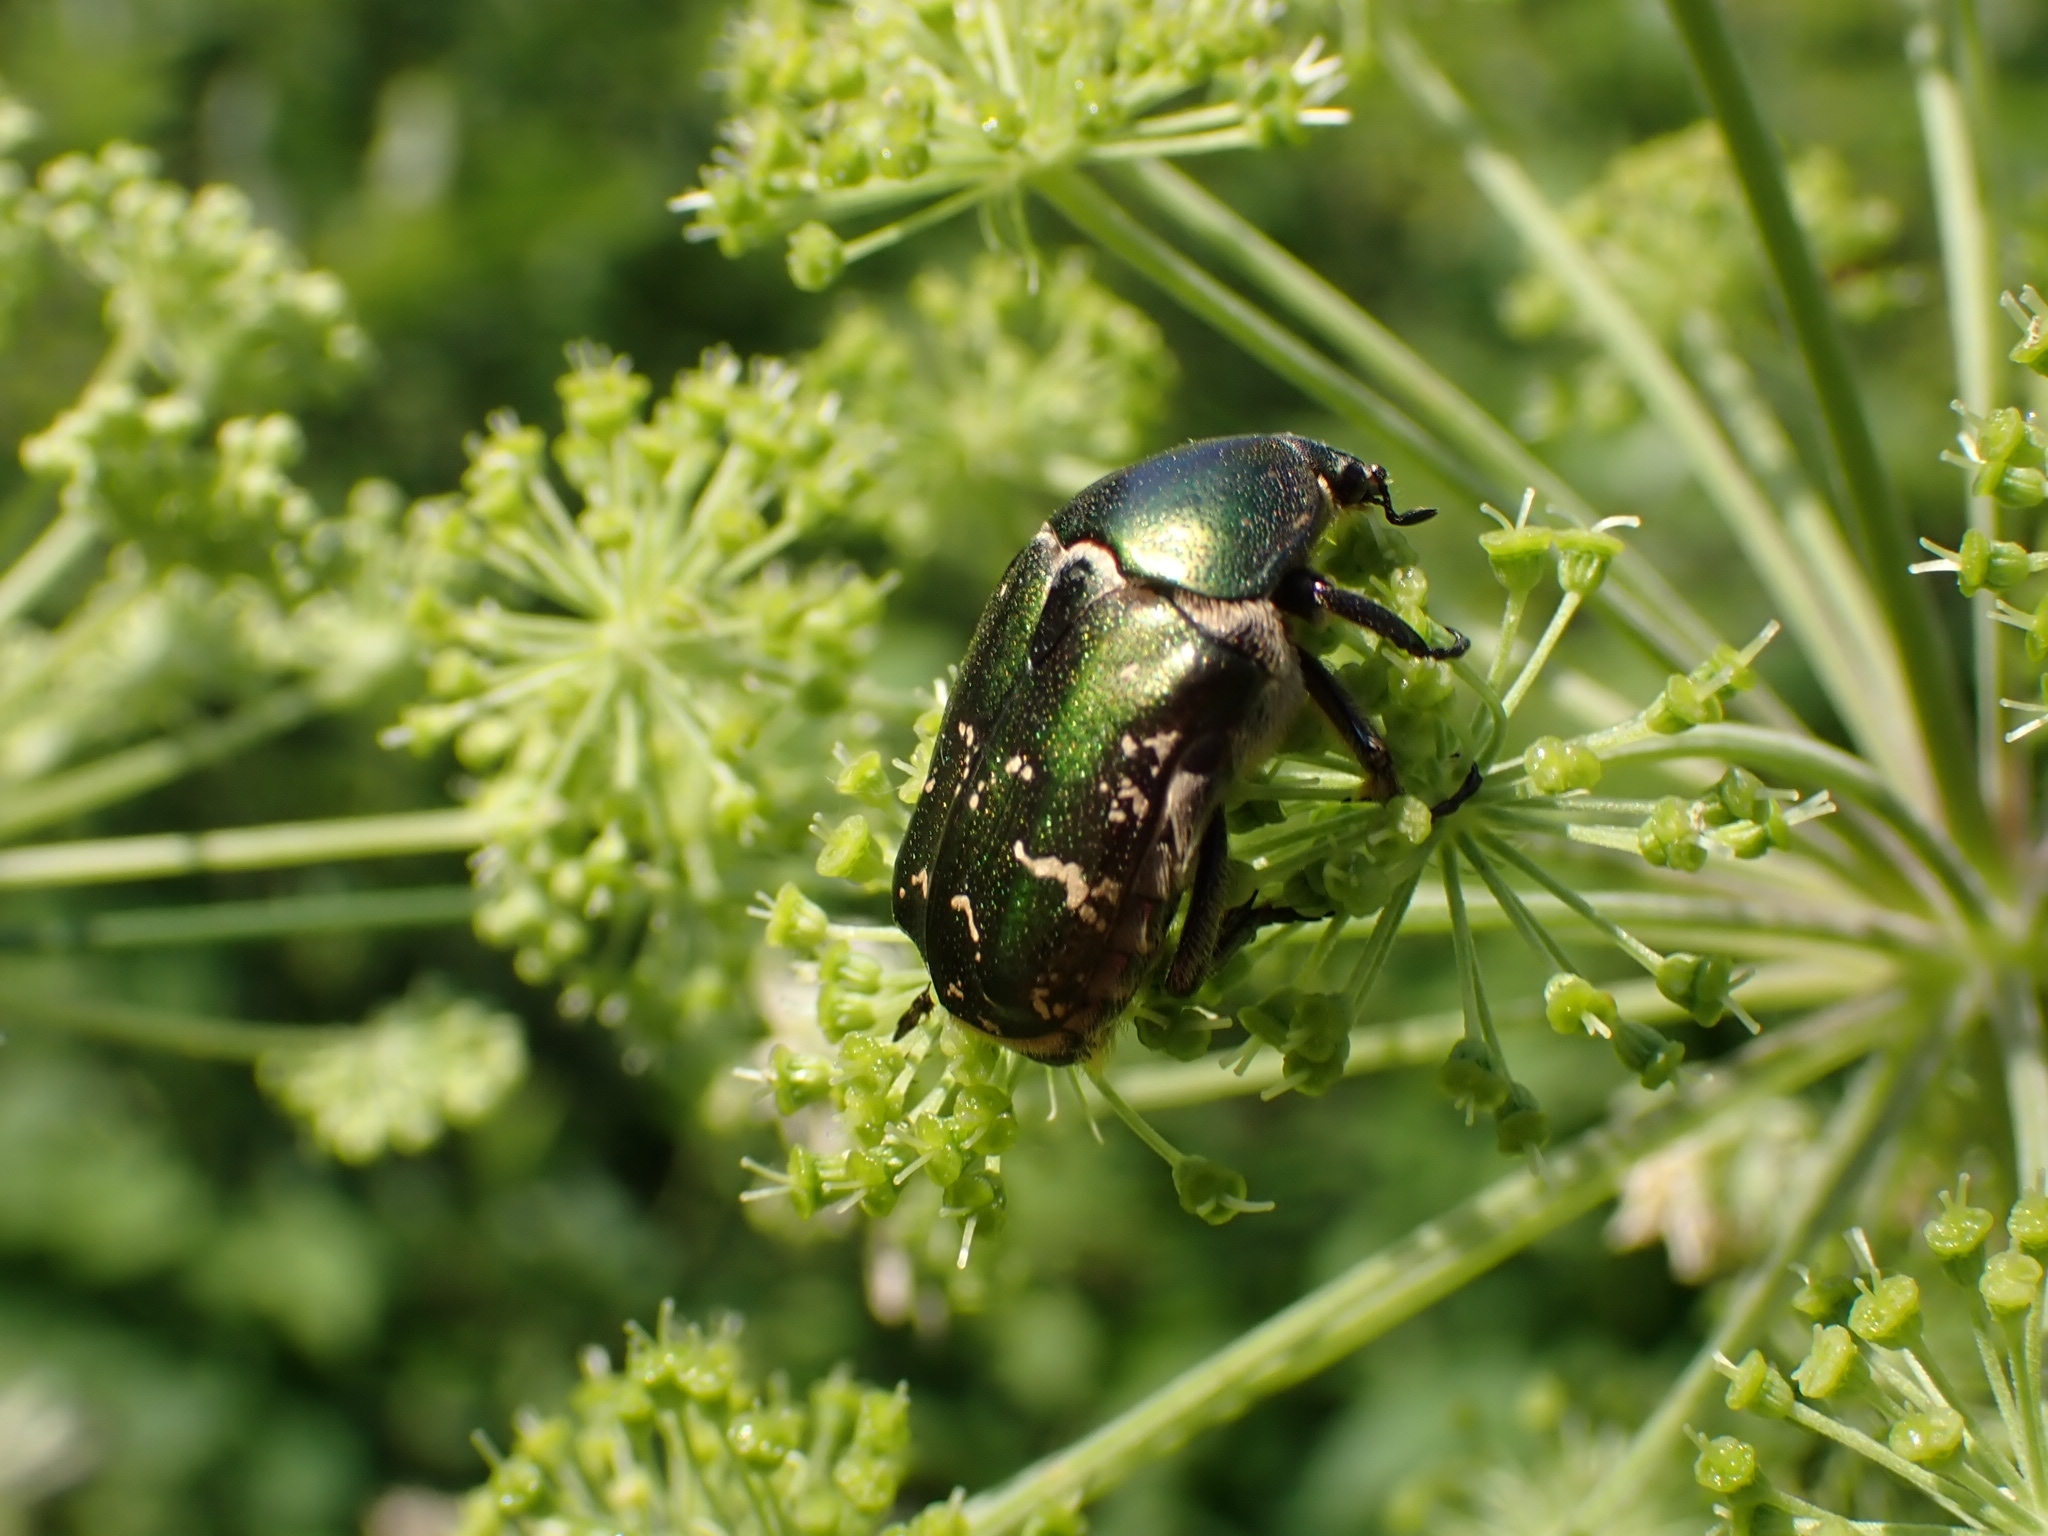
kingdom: Animalia
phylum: Arthropoda
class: Insecta
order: Coleoptera
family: Scarabaeidae
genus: Protaetia
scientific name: Protaetia cuprea
